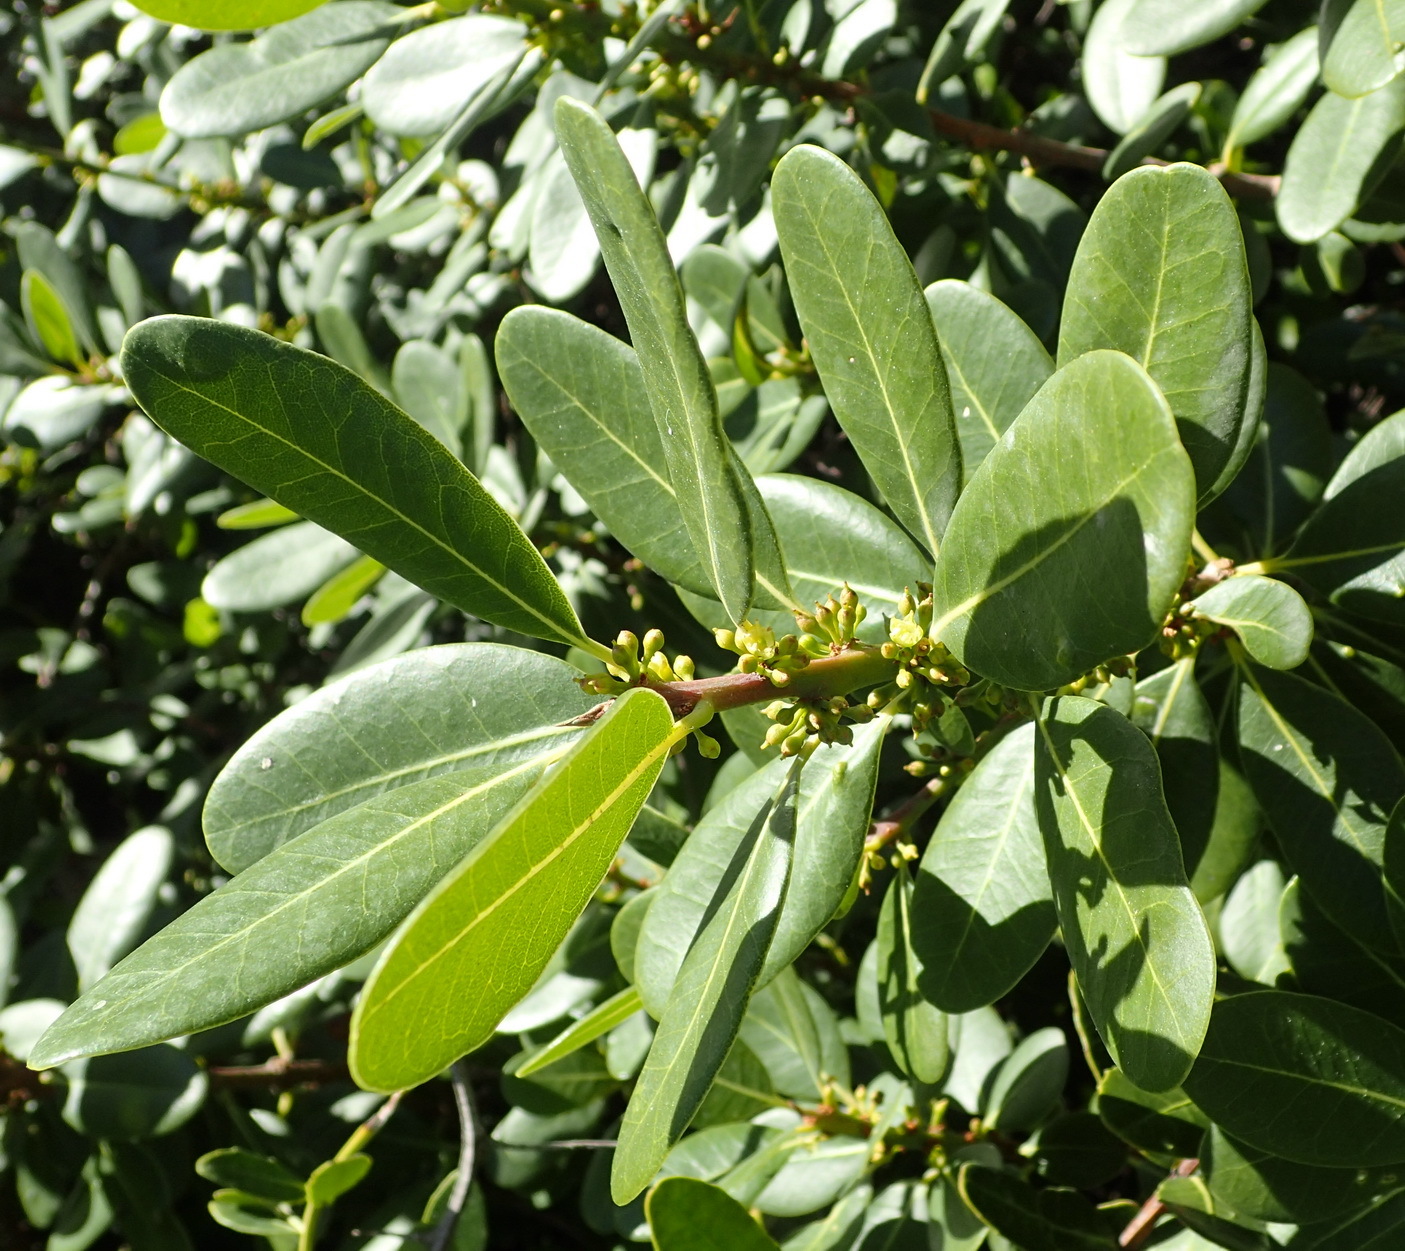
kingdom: Plantae
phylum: Tracheophyta
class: Magnoliopsida
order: Ericales
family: Sapotaceae
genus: Sideroxylon
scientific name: Sideroxylon inerme
